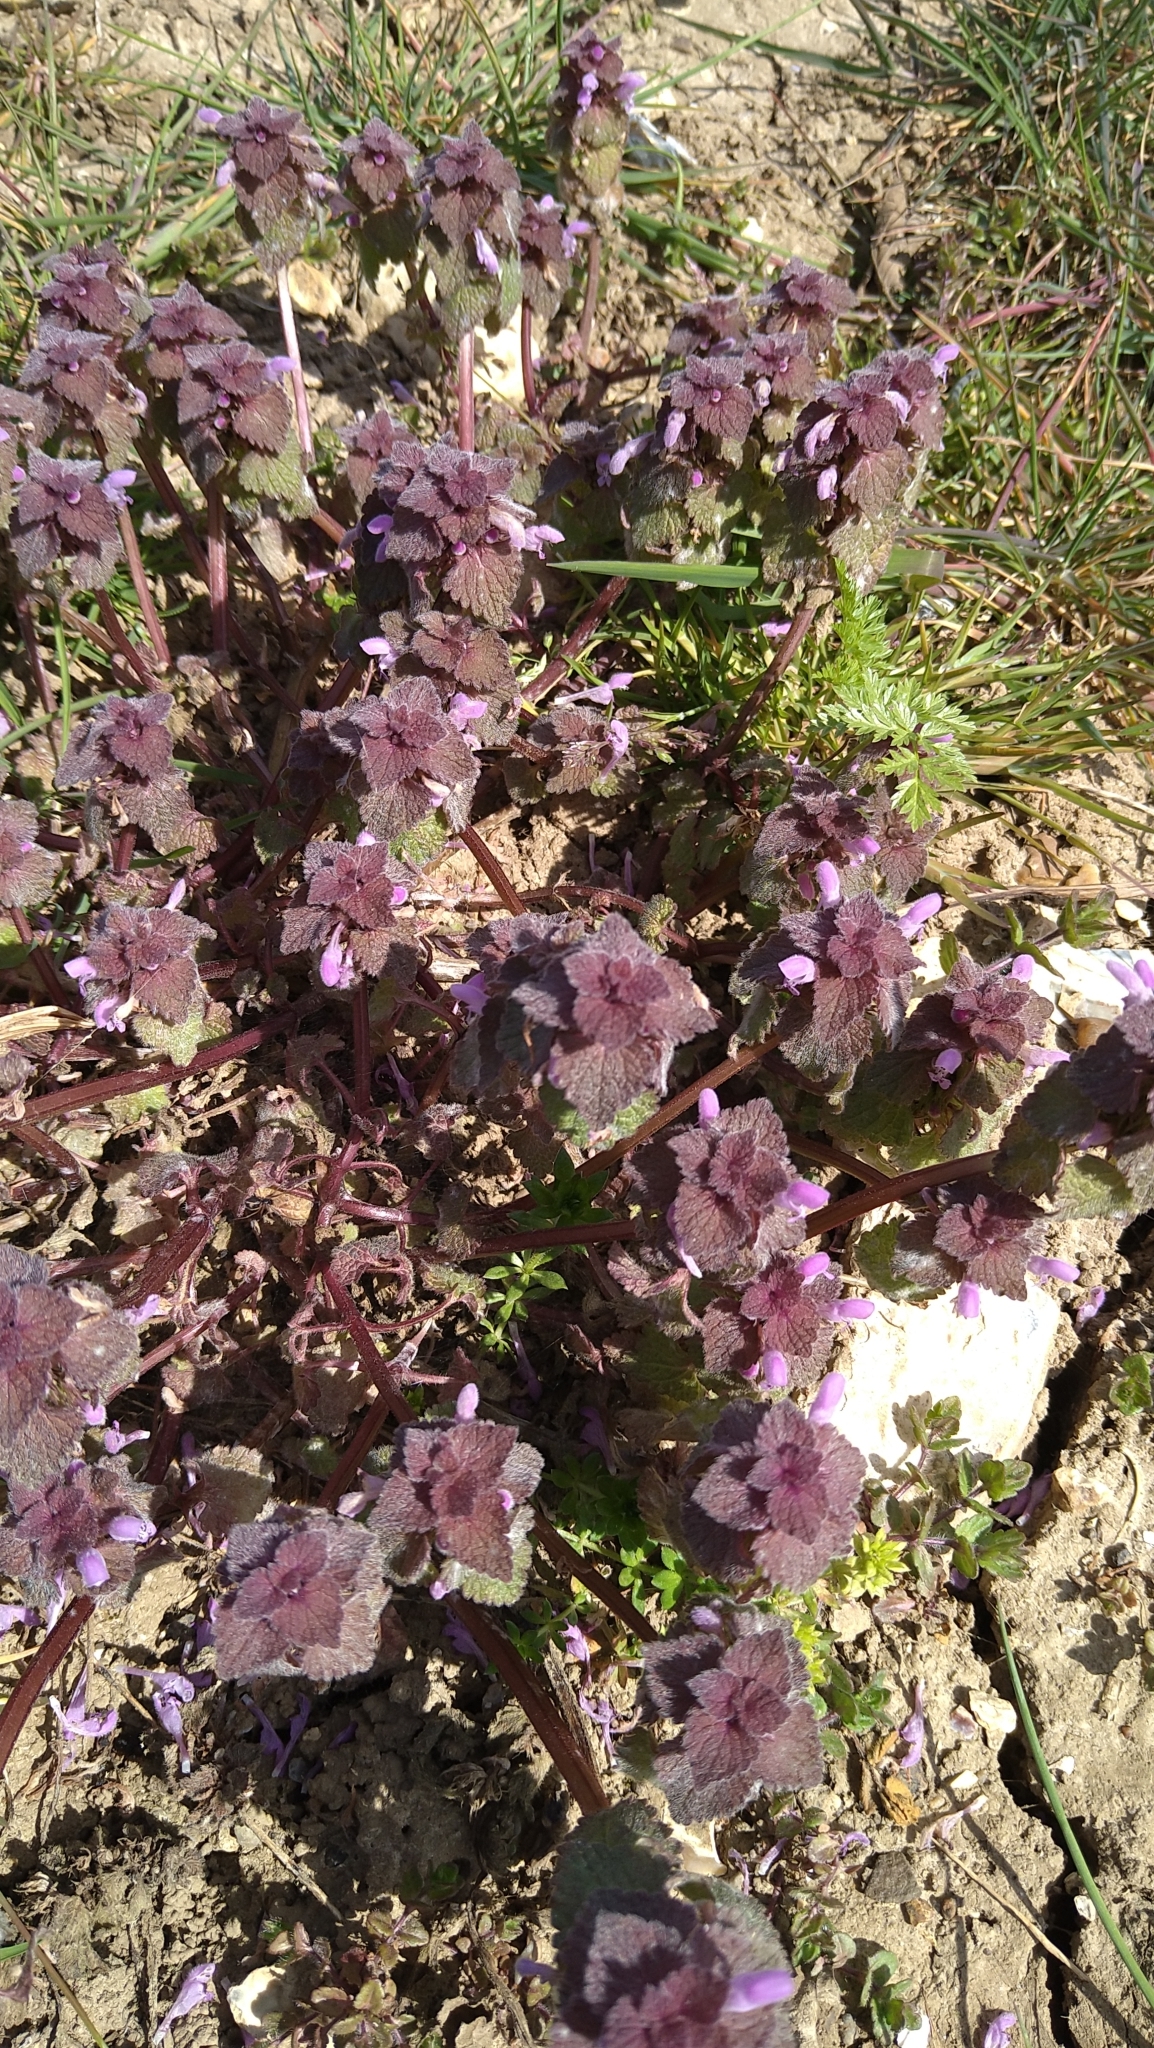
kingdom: Plantae
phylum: Tracheophyta
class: Magnoliopsida
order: Lamiales
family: Lamiaceae
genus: Lamium
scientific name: Lamium purpureum
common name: Red dead-nettle
